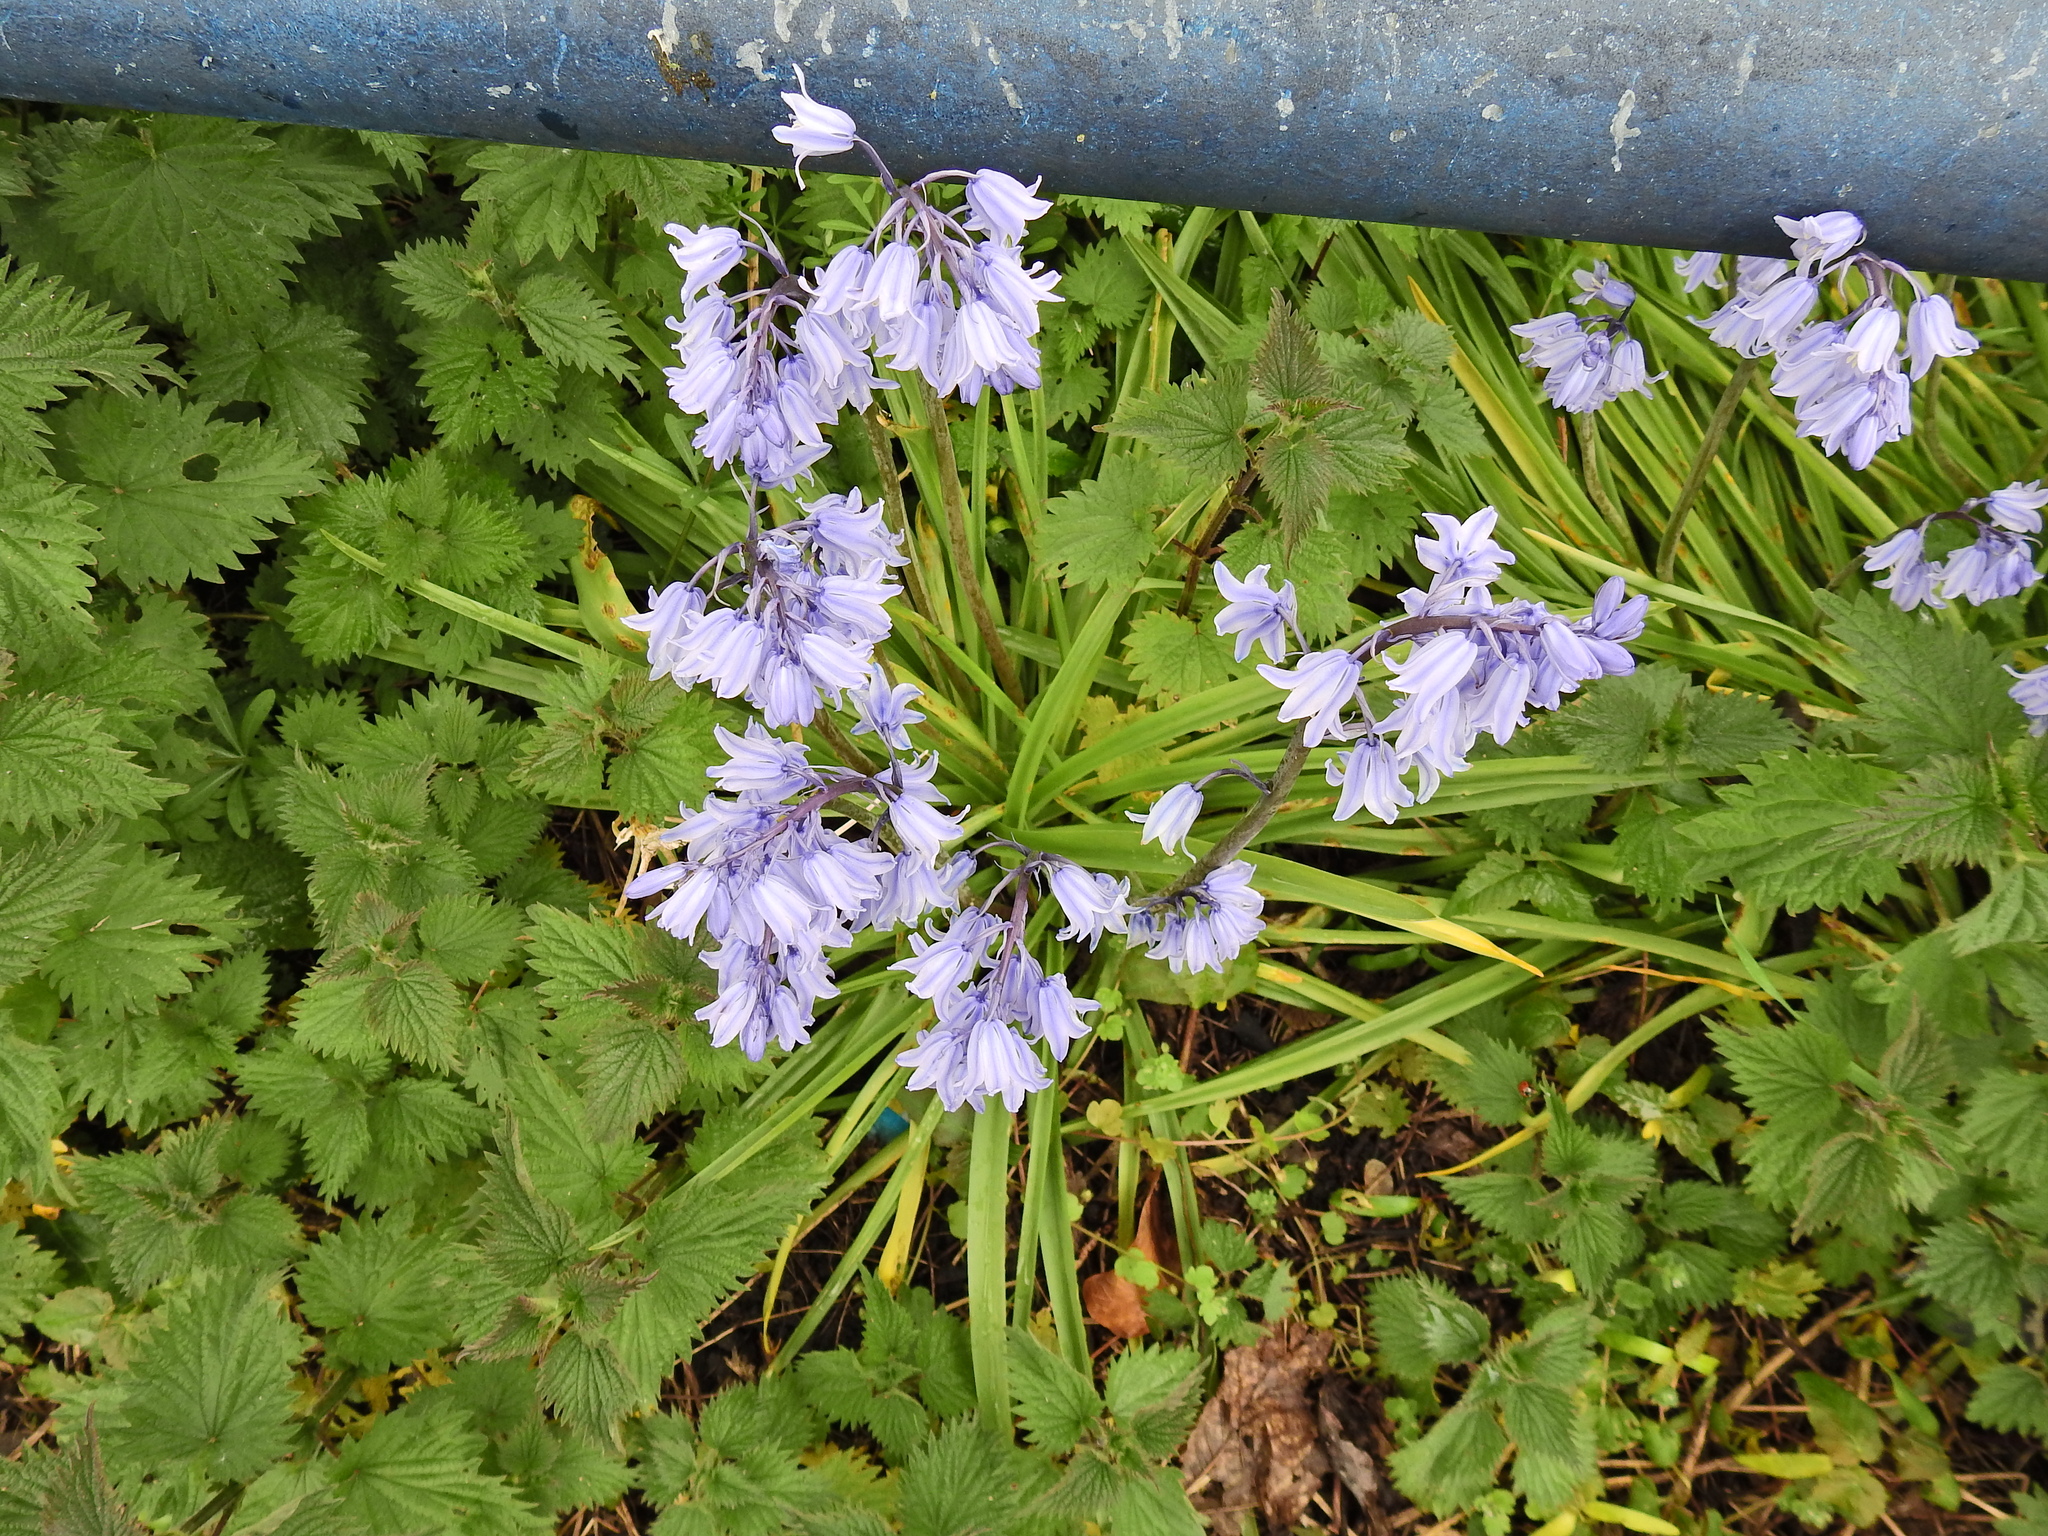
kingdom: Plantae
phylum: Tracheophyta
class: Liliopsida
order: Asparagales
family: Asparagaceae
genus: Hyacinthoides
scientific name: Hyacinthoides massartiana
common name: Hyacinthoides
